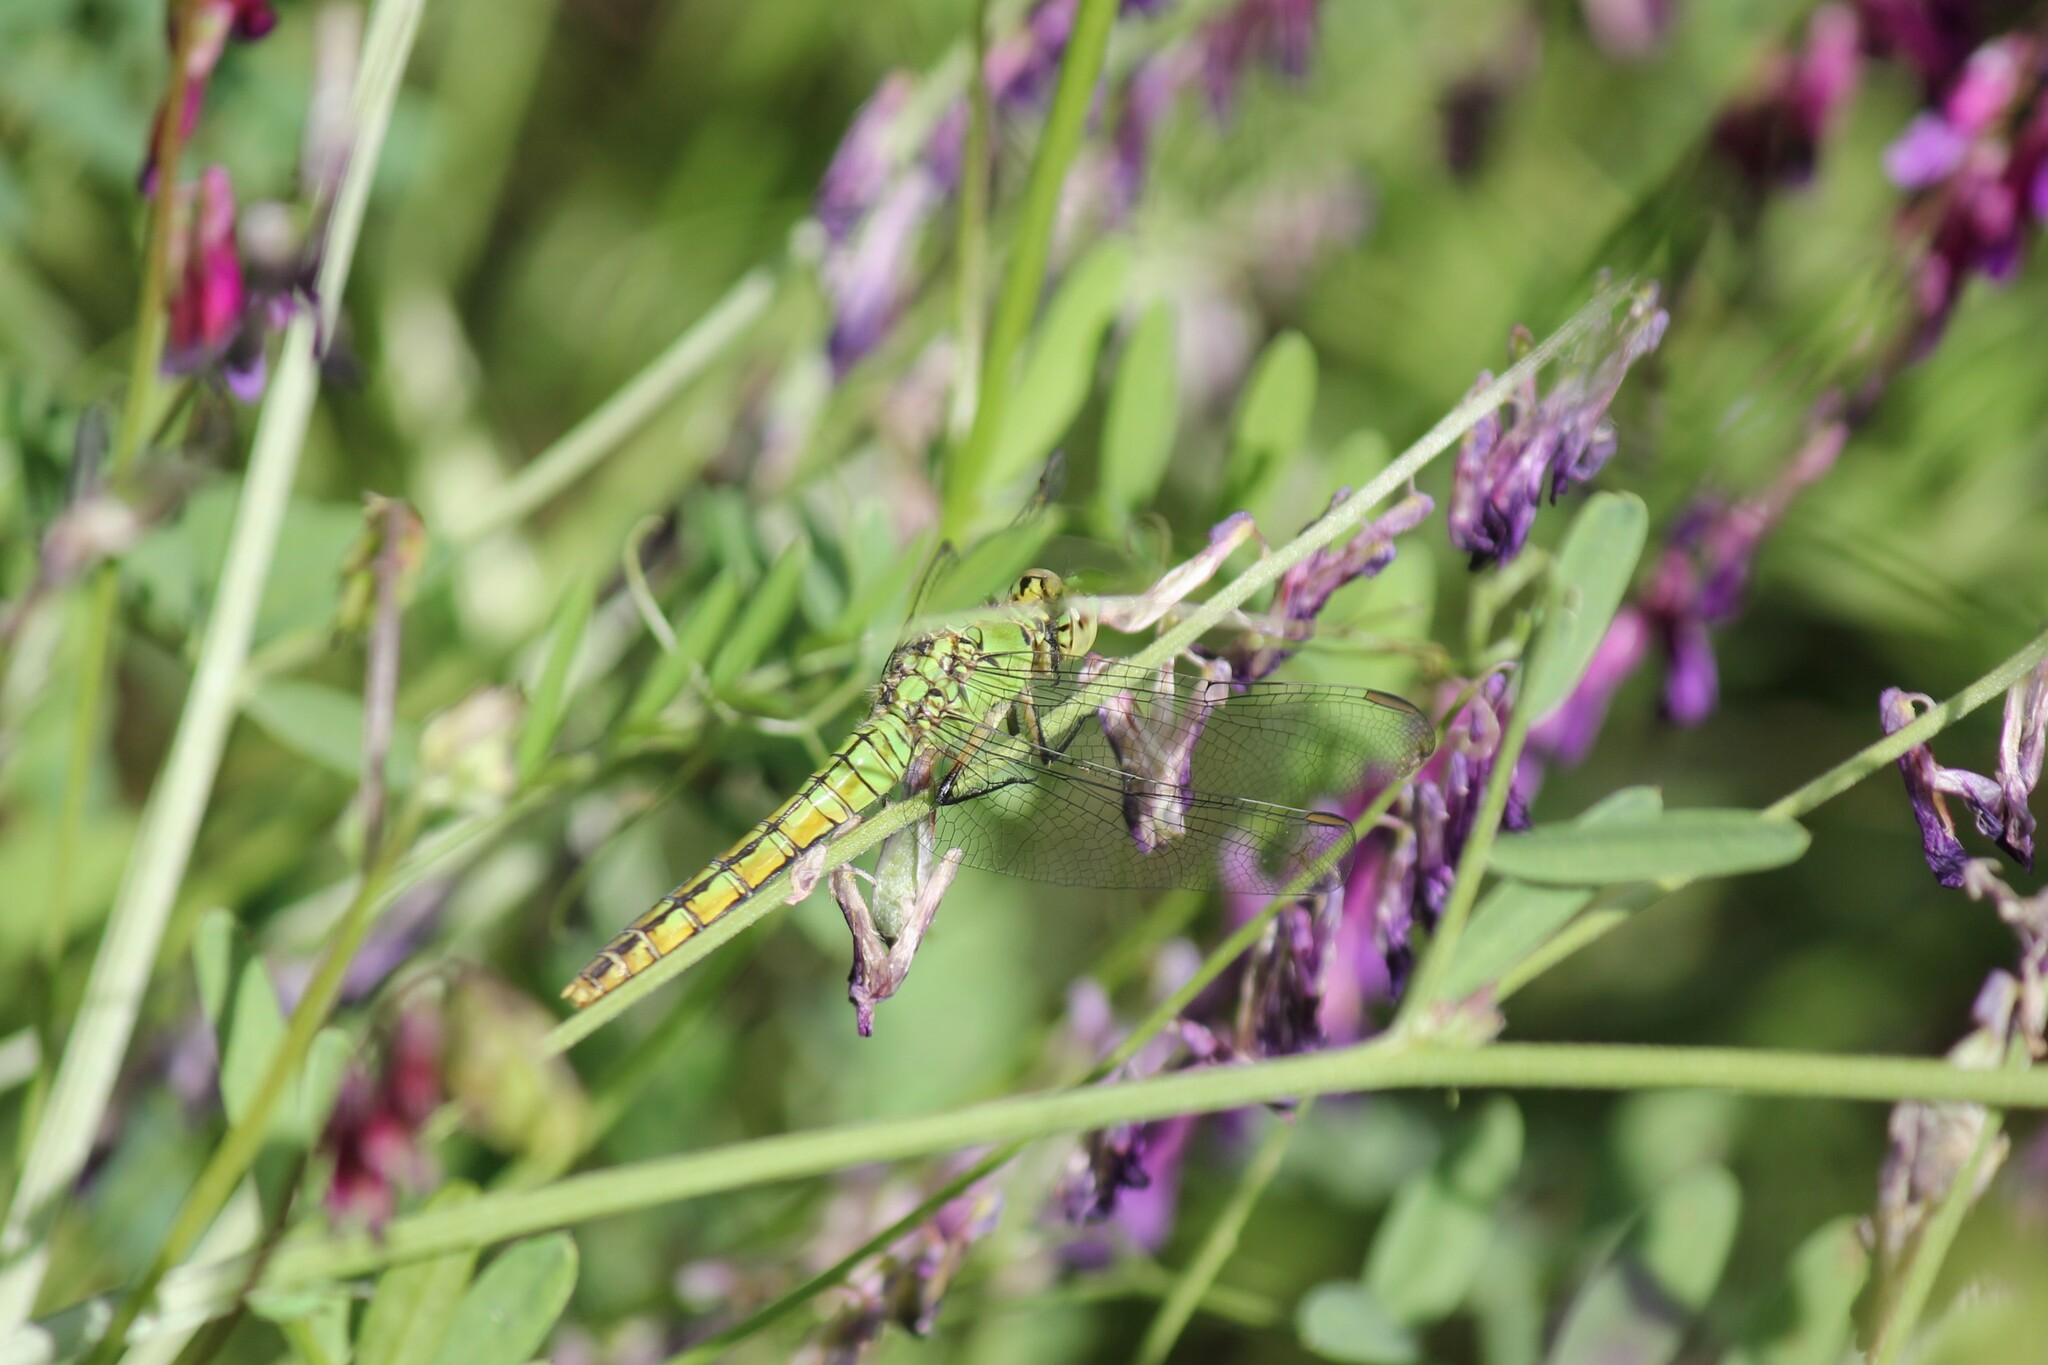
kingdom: Animalia
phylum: Arthropoda
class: Insecta
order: Odonata
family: Libellulidae
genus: Erythemis
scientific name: Erythemis collocata
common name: Western pondhawk
